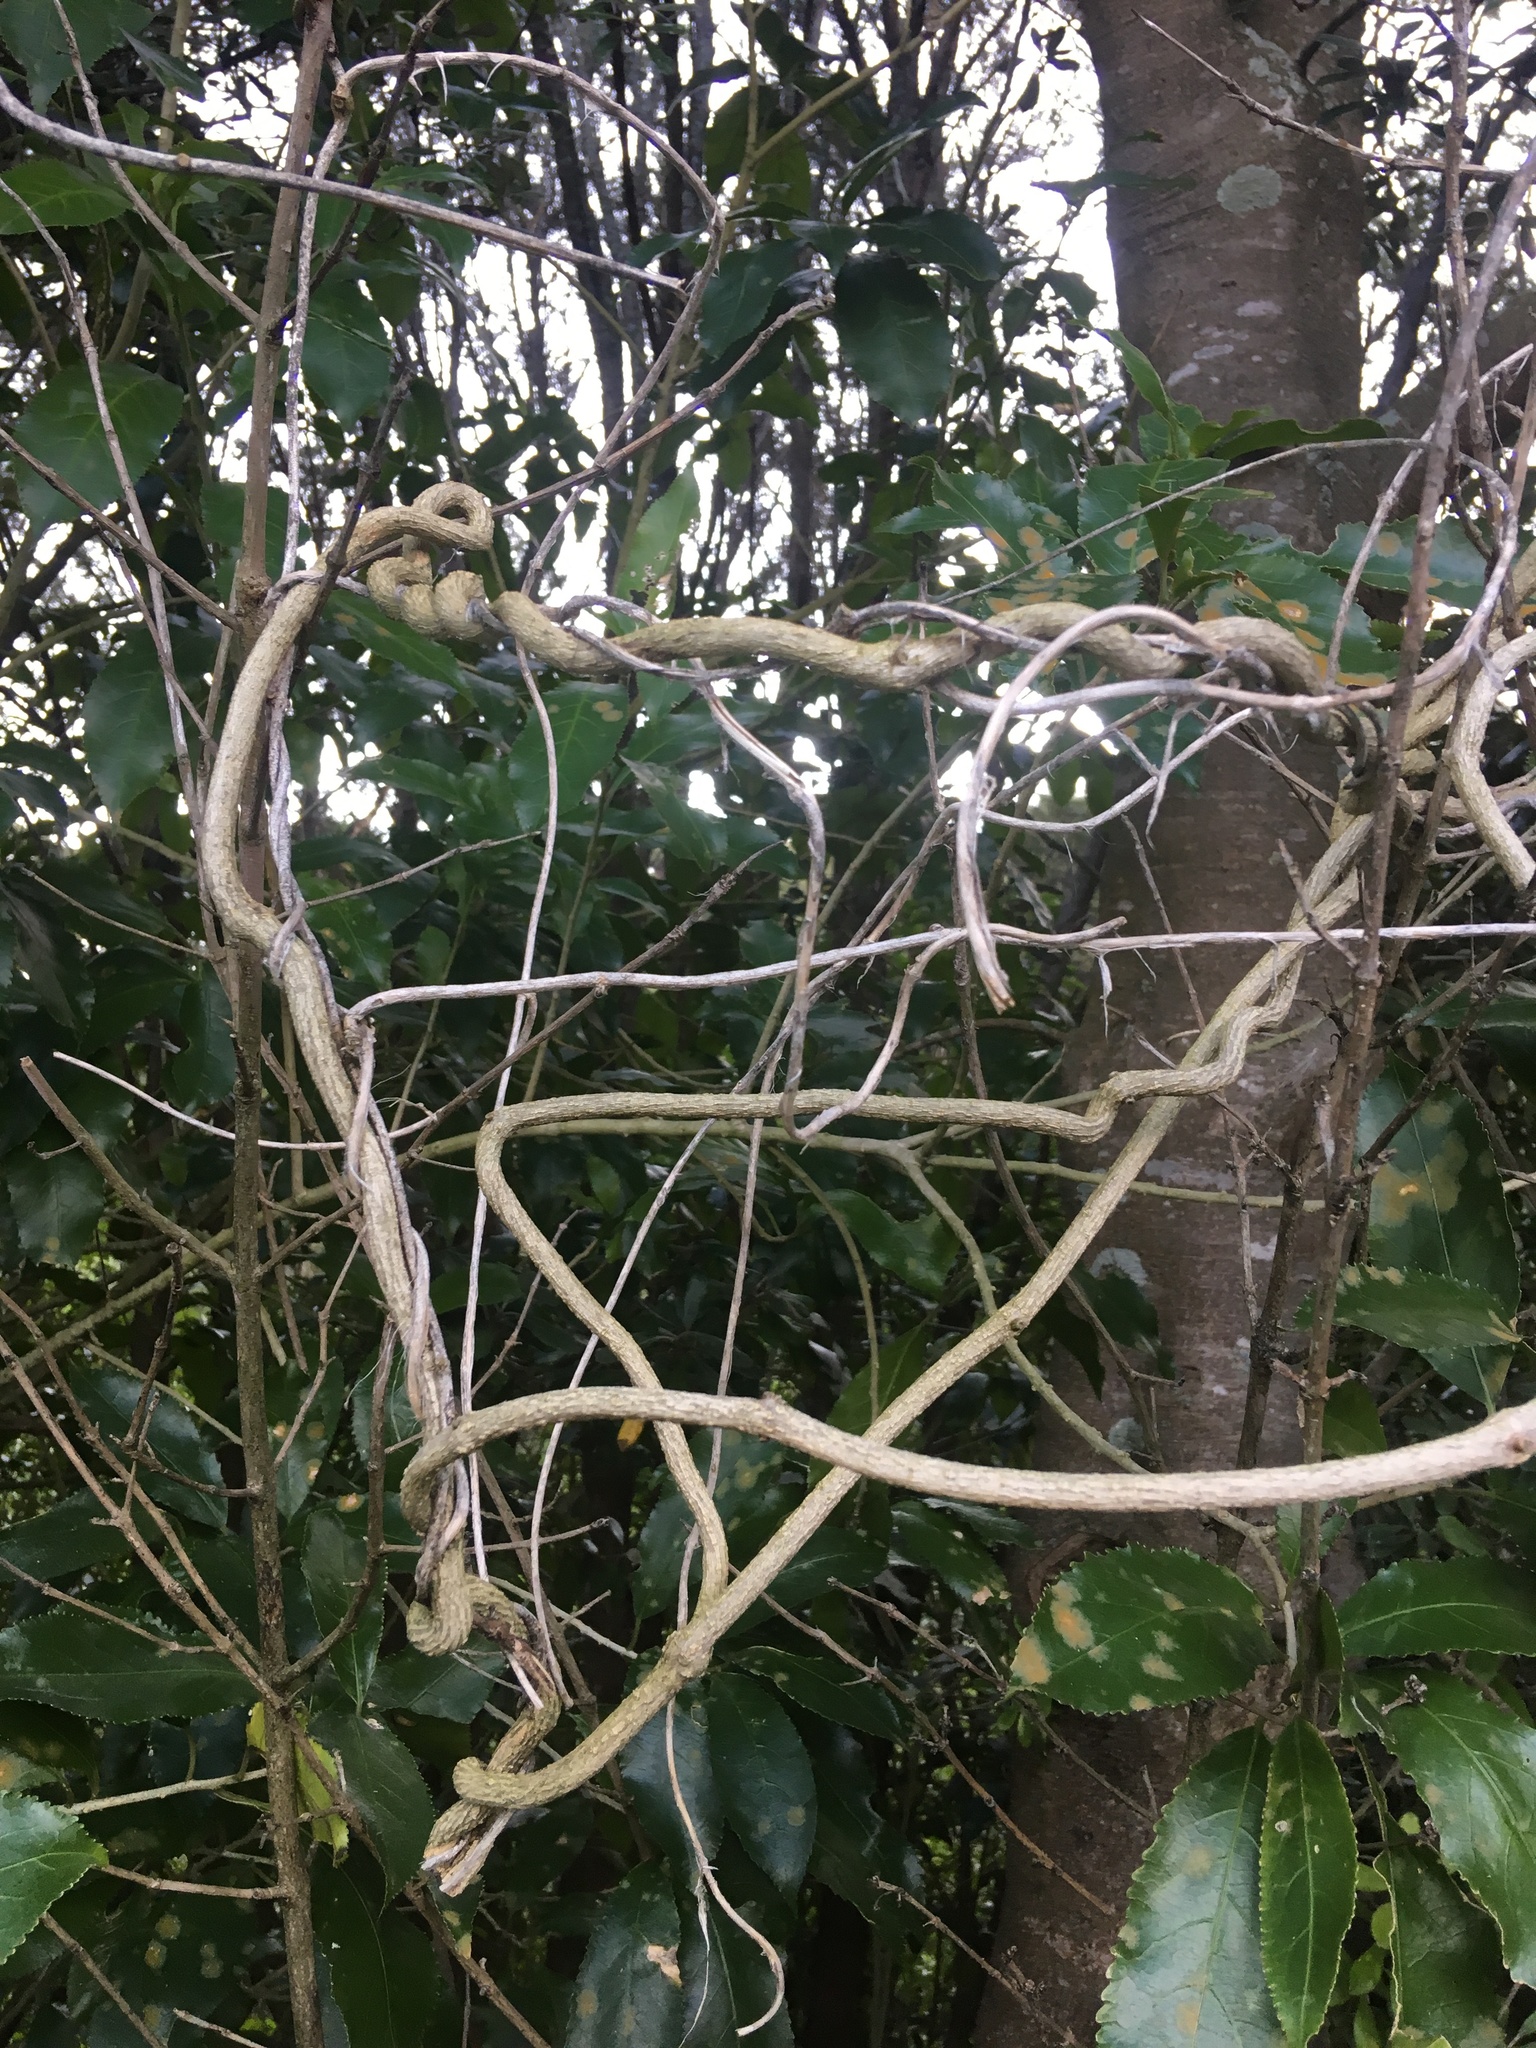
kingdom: Plantae
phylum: Tracheophyta
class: Magnoliopsida
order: Gentianales
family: Apocynaceae
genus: Araujia
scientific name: Araujia sericifera
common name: White bladderflower
